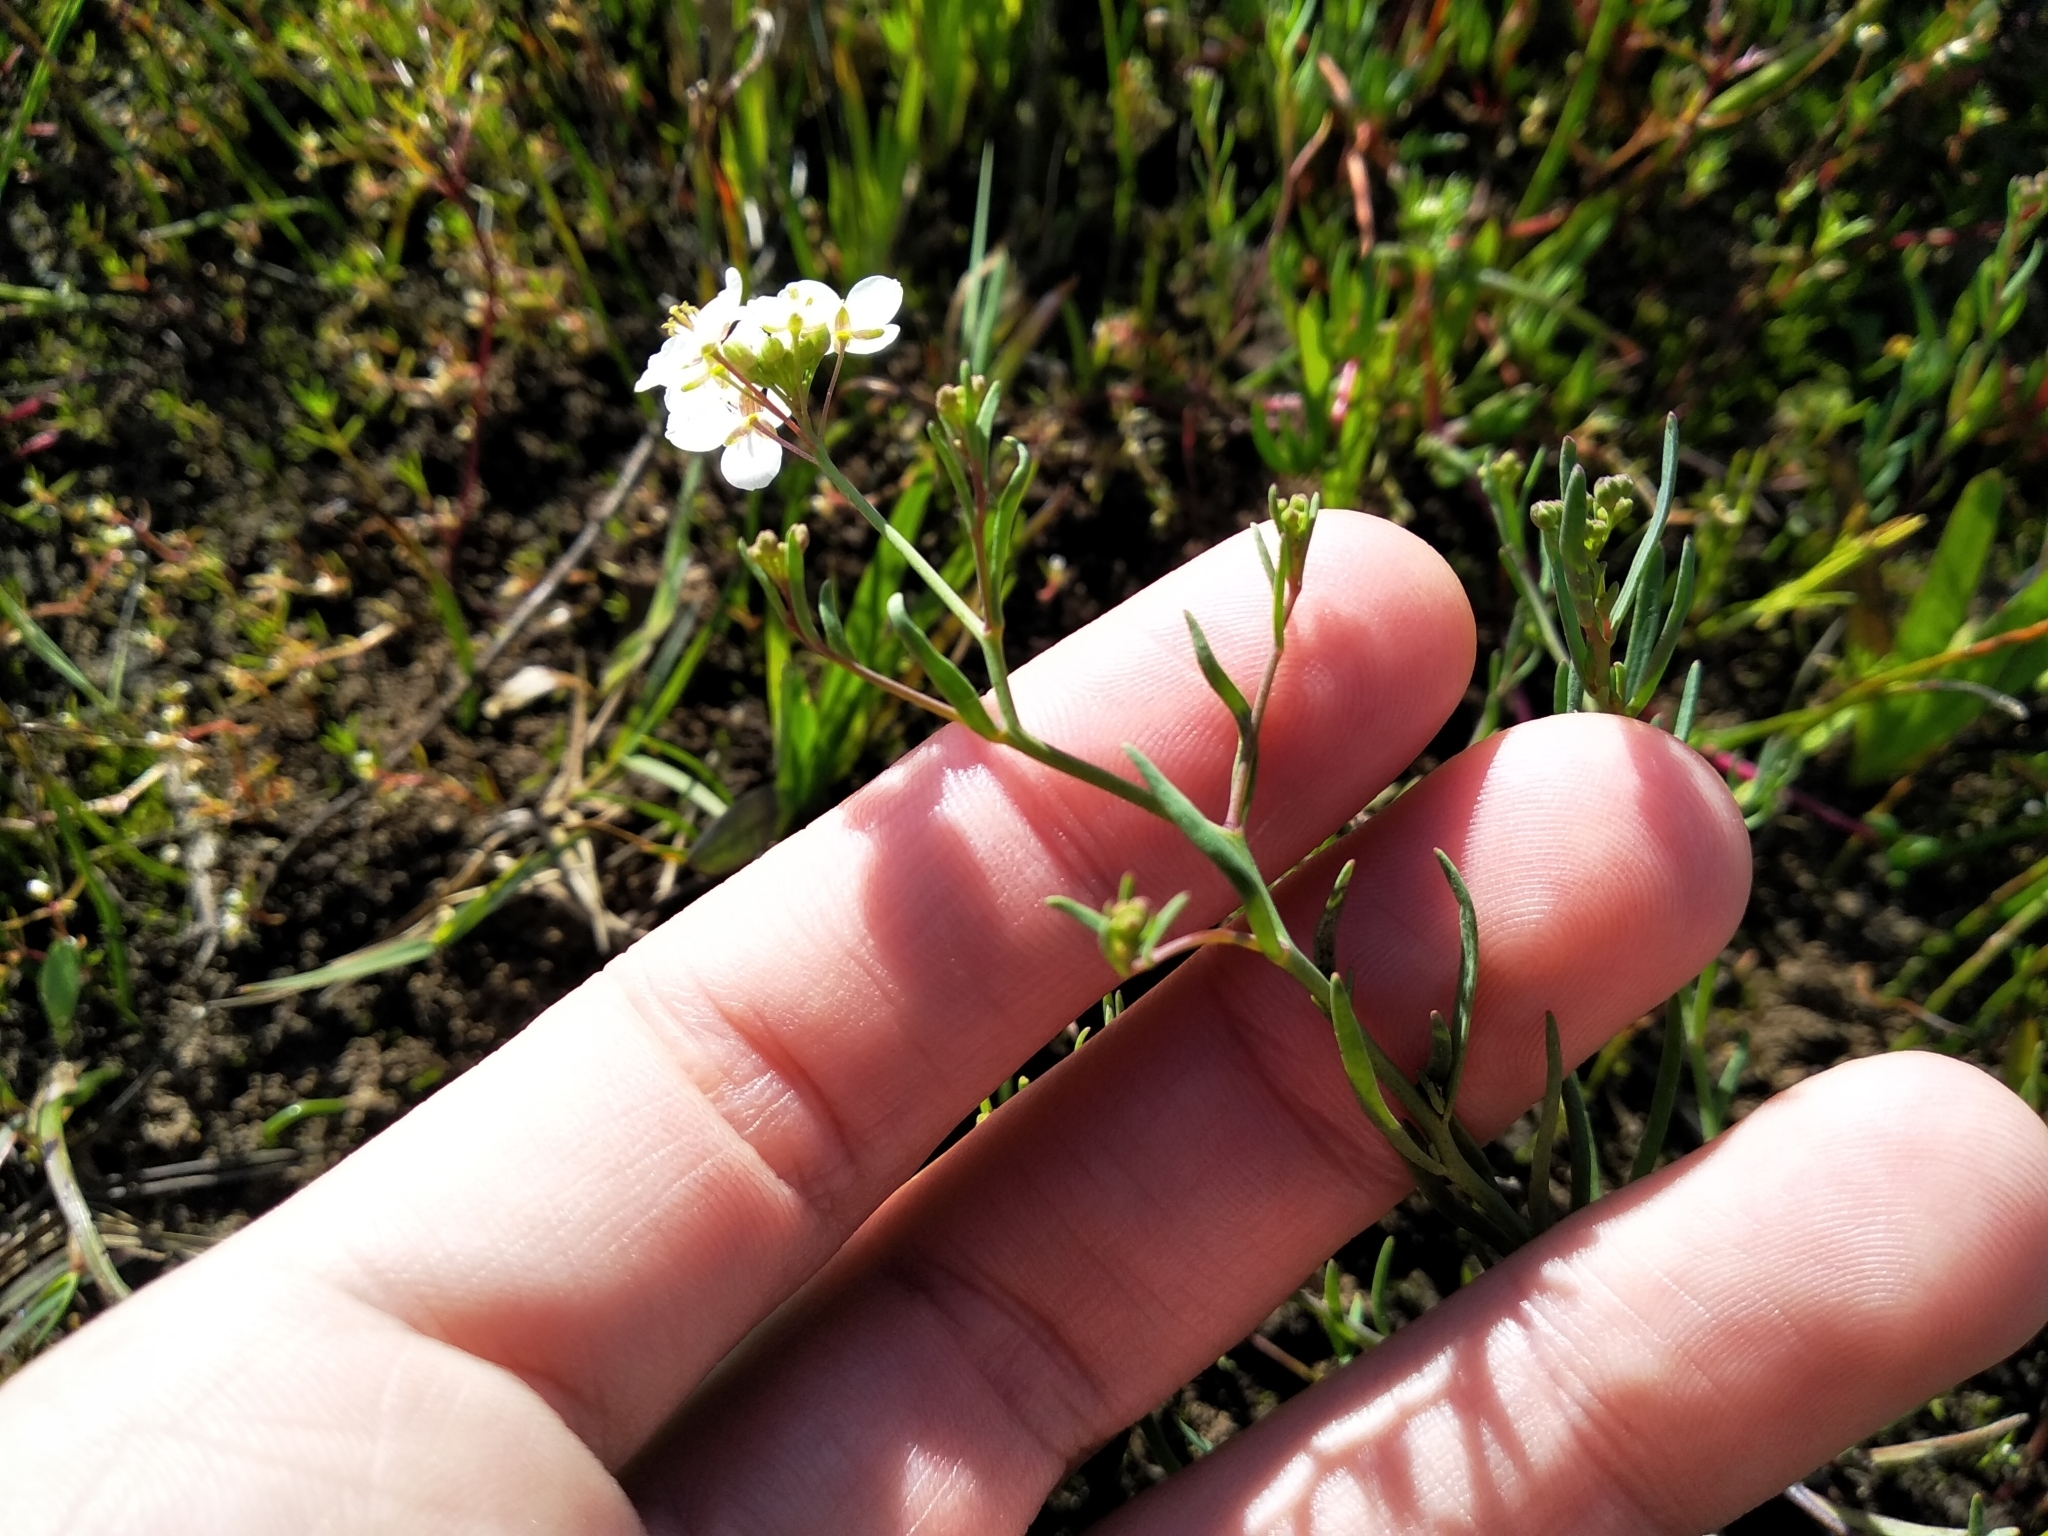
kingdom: Plantae
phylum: Tracheophyta
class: Magnoliopsida
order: Brassicales
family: Brassicaceae
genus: Heliophila
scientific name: Heliophila pusilla
